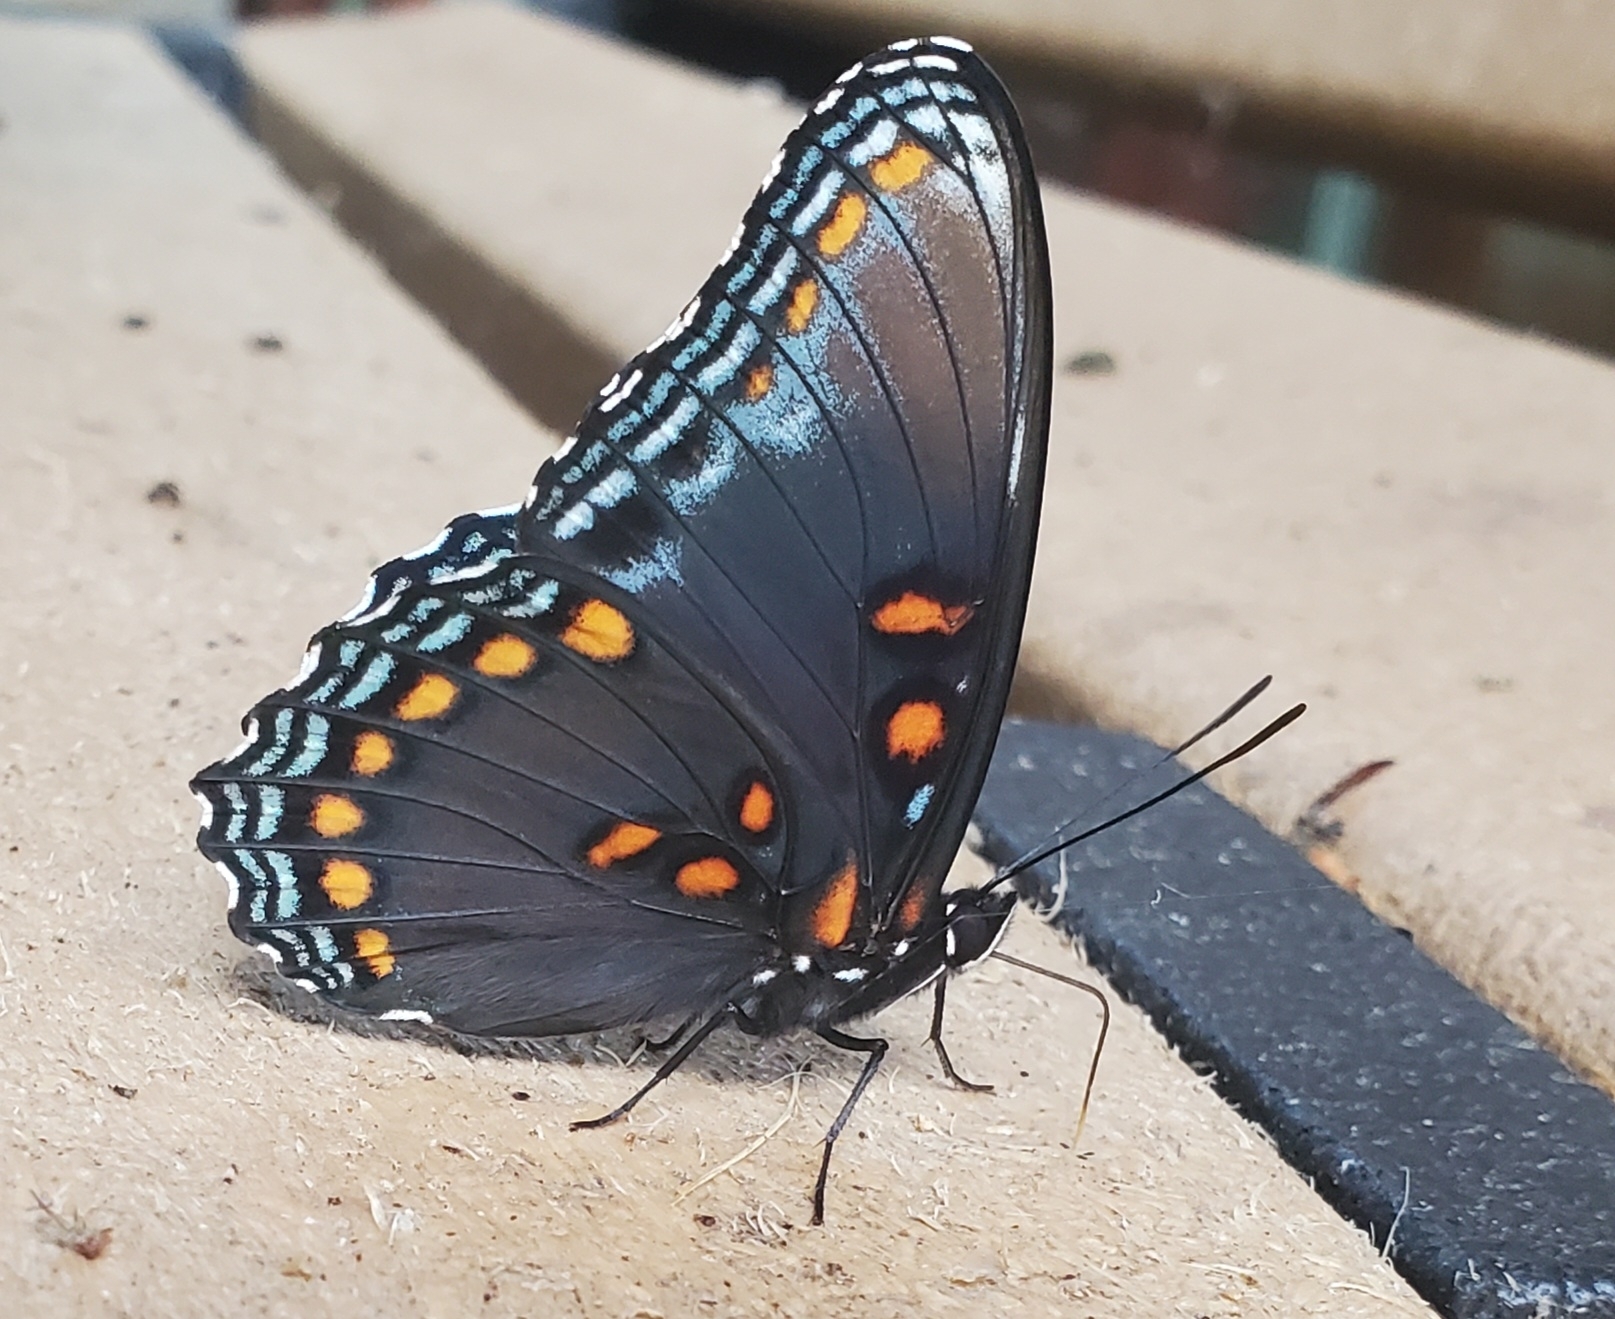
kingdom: Animalia
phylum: Arthropoda
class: Insecta
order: Lepidoptera
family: Nymphalidae
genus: Limenitis
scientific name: Limenitis astyanax
